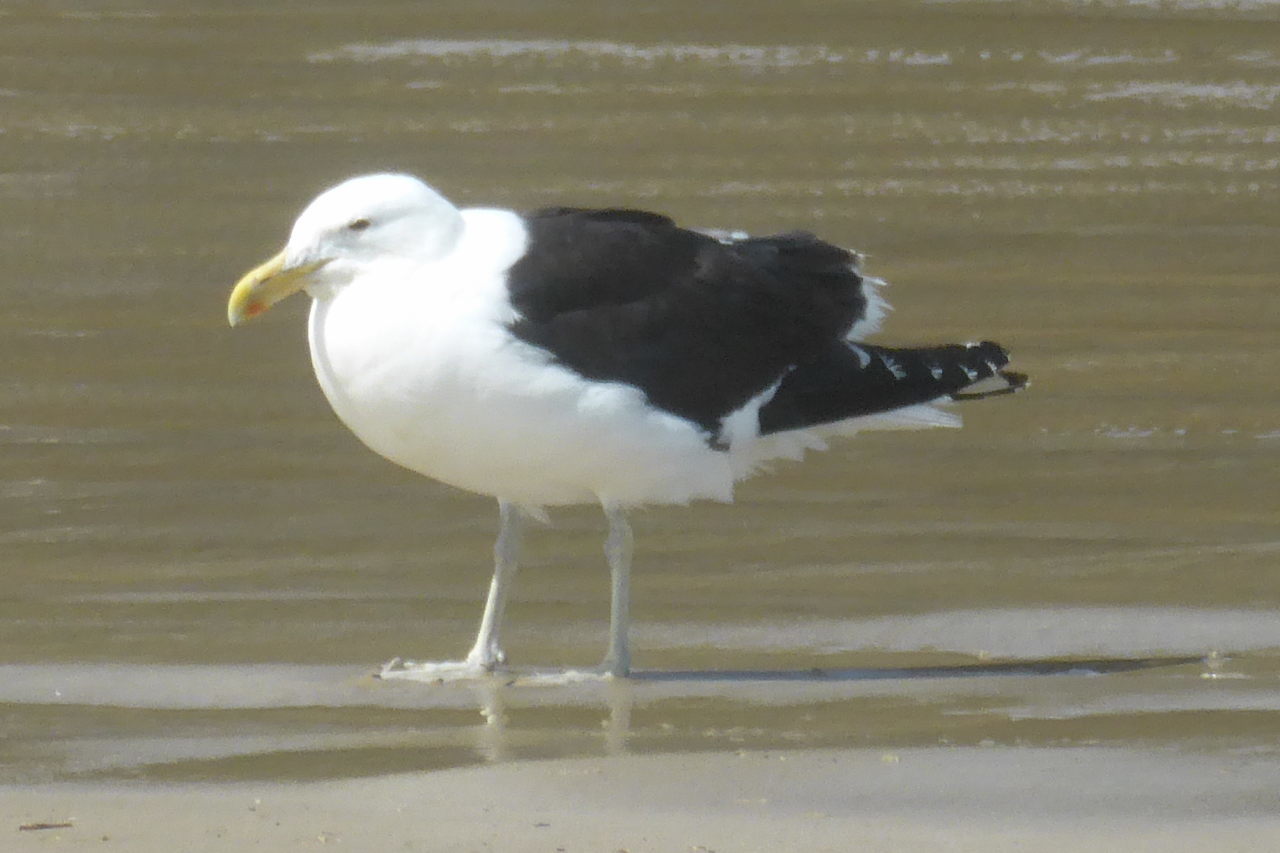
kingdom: Animalia
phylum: Chordata
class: Aves
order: Charadriiformes
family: Laridae
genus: Larus
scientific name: Larus dominicanus
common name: Kelp gull
